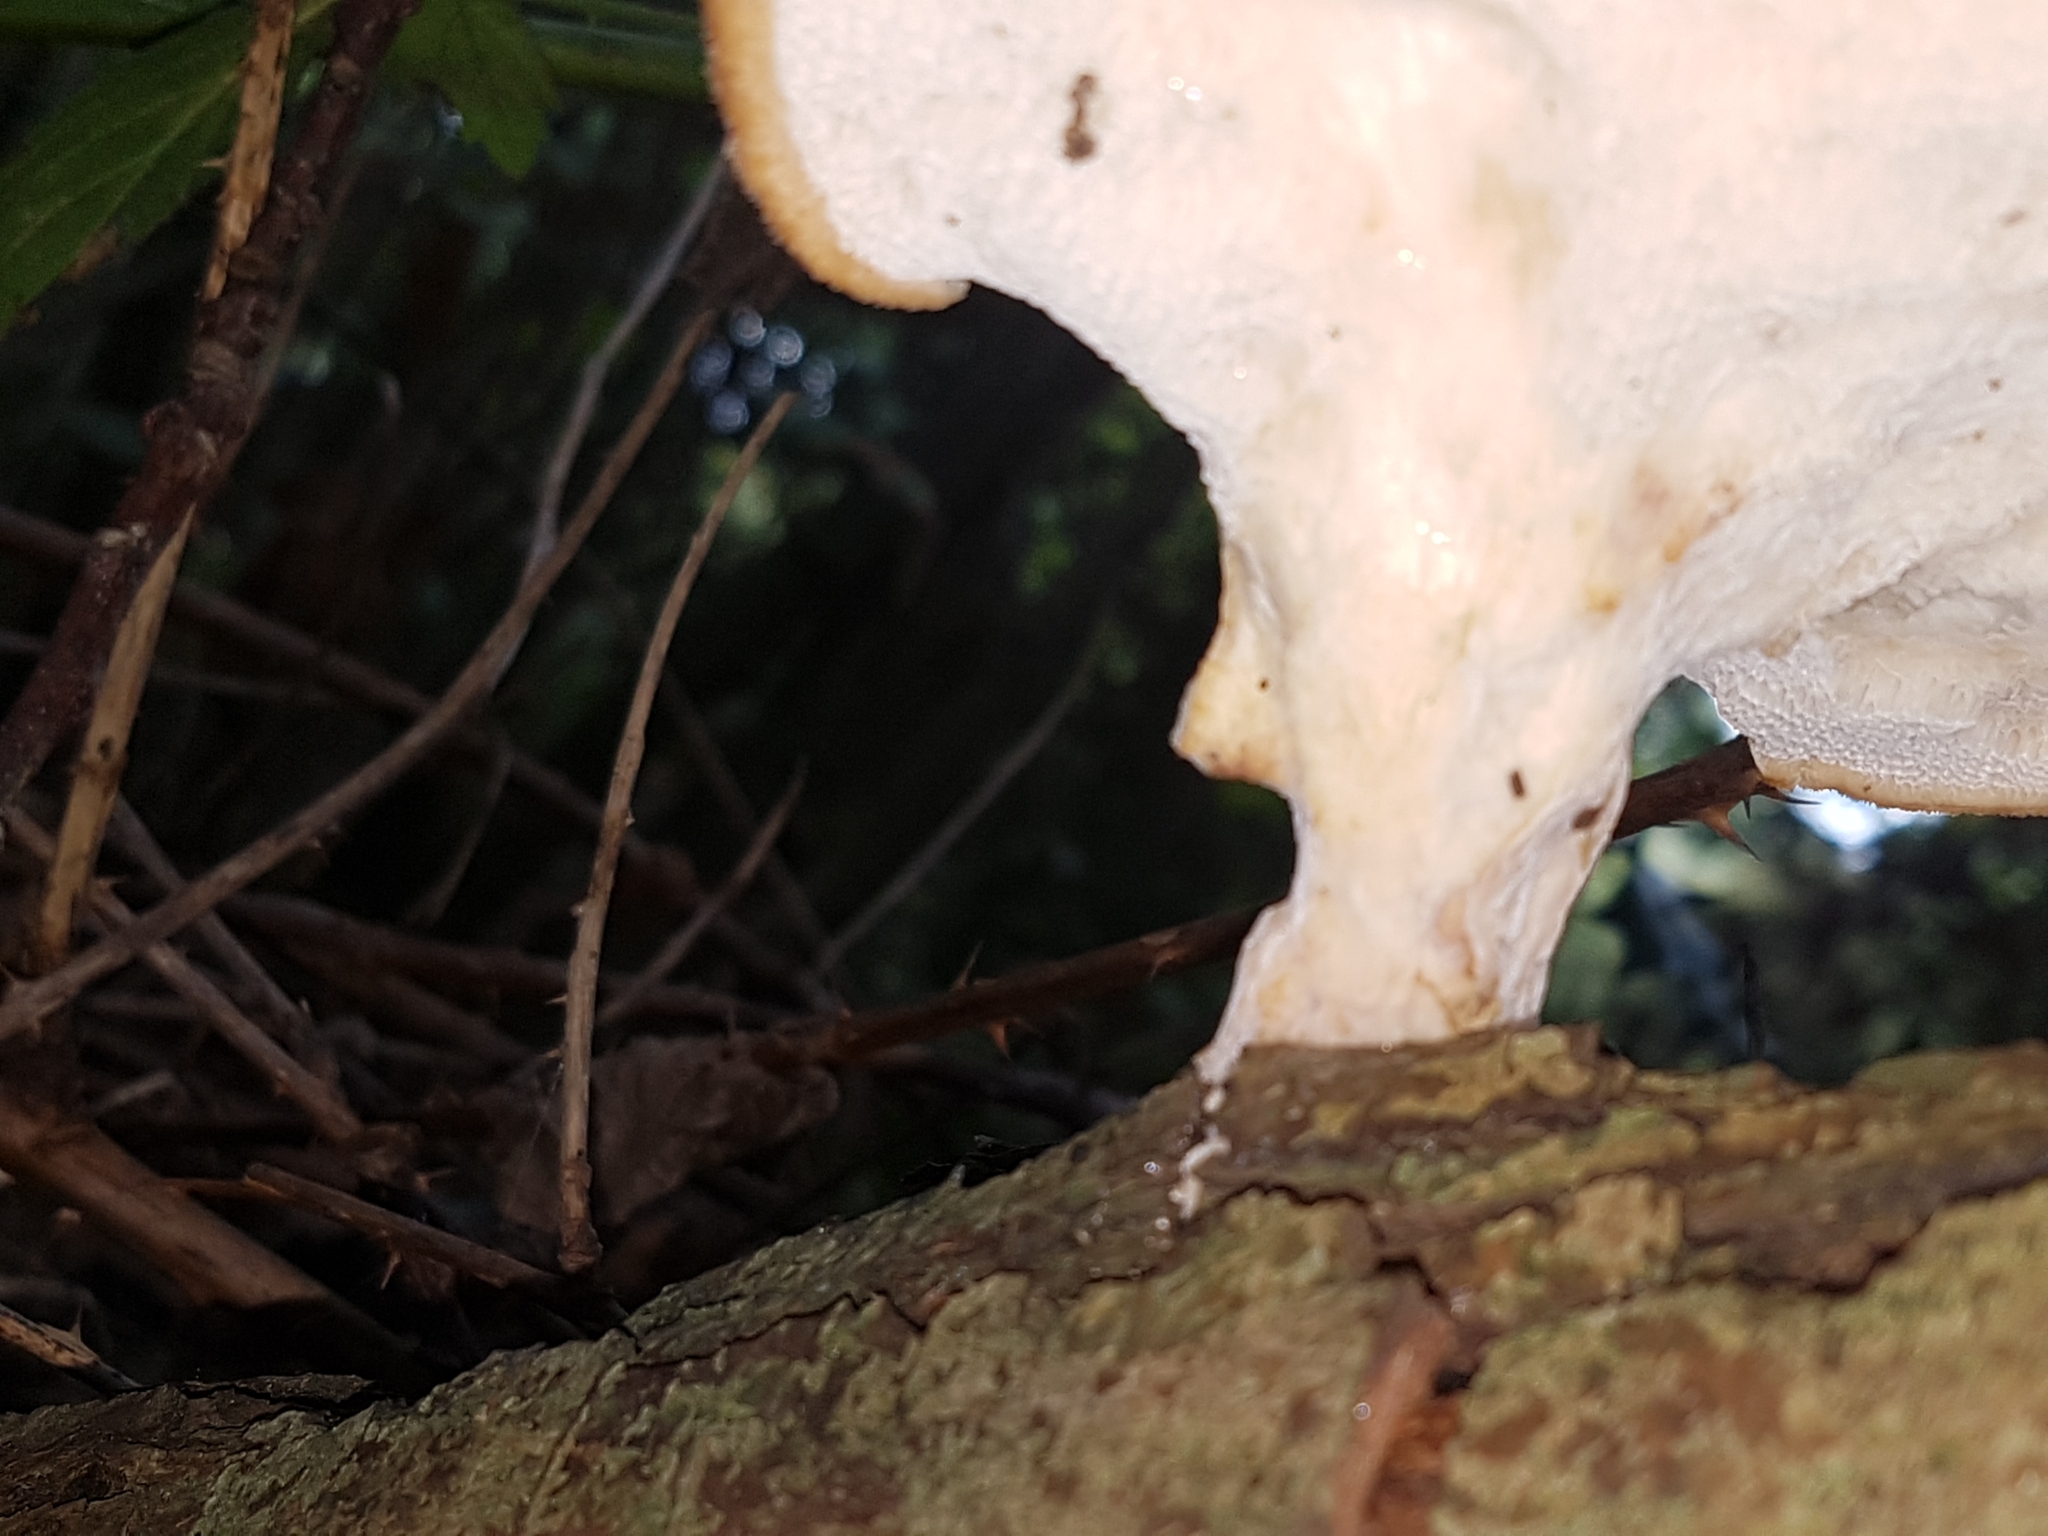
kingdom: Fungi
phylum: Basidiomycota
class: Agaricomycetes
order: Polyporales
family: Polyporaceae
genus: Polyporus
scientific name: Polyporus tuberaster
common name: Tuberous polypore
